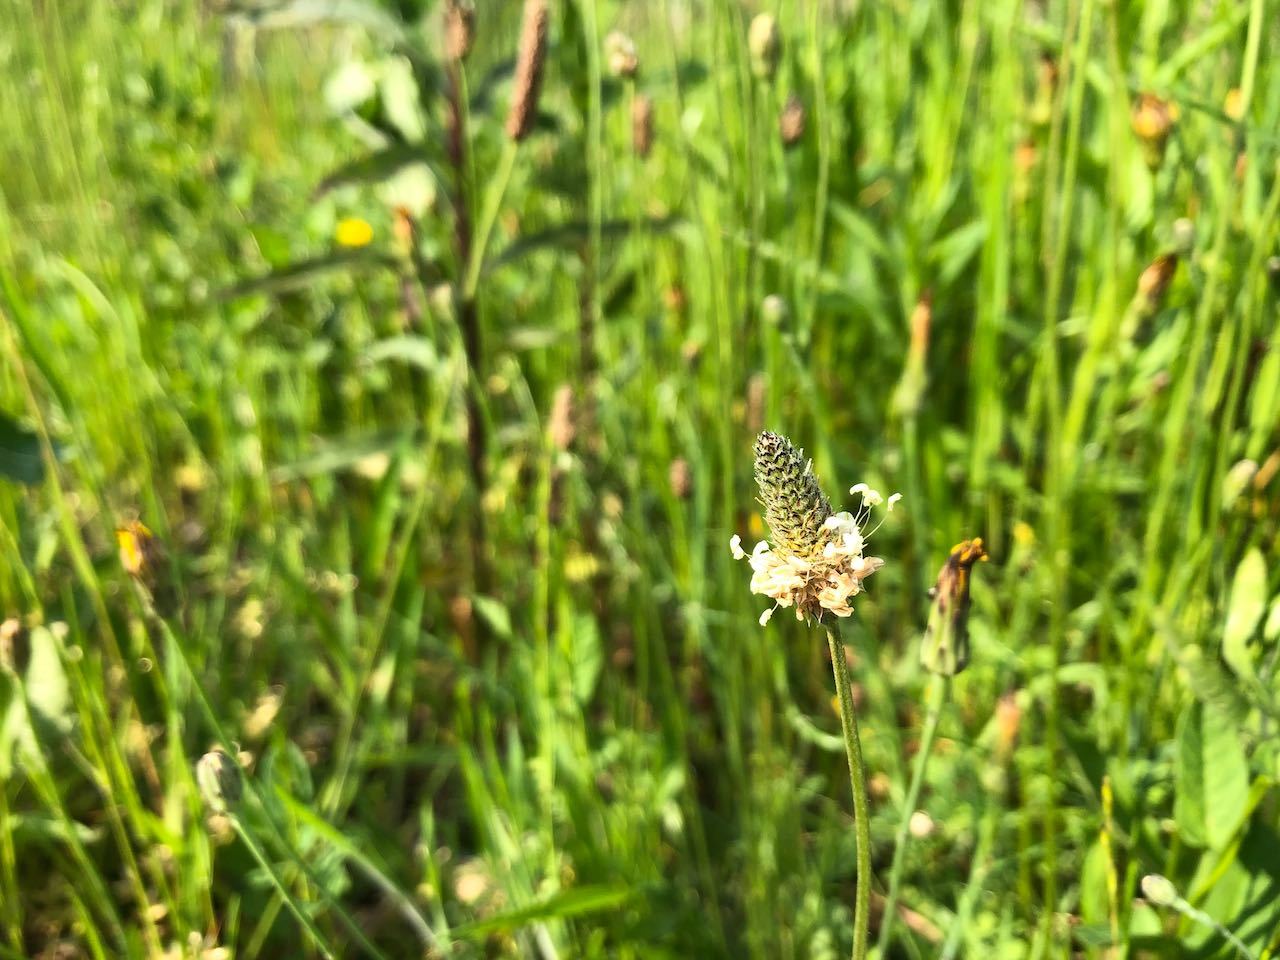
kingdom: Plantae
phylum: Tracheophyta
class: Magnoliopsida
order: Lamiales
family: Plantaginaceae
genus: Plantago
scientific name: Plantago lanceolata
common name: Ribwort plantain
